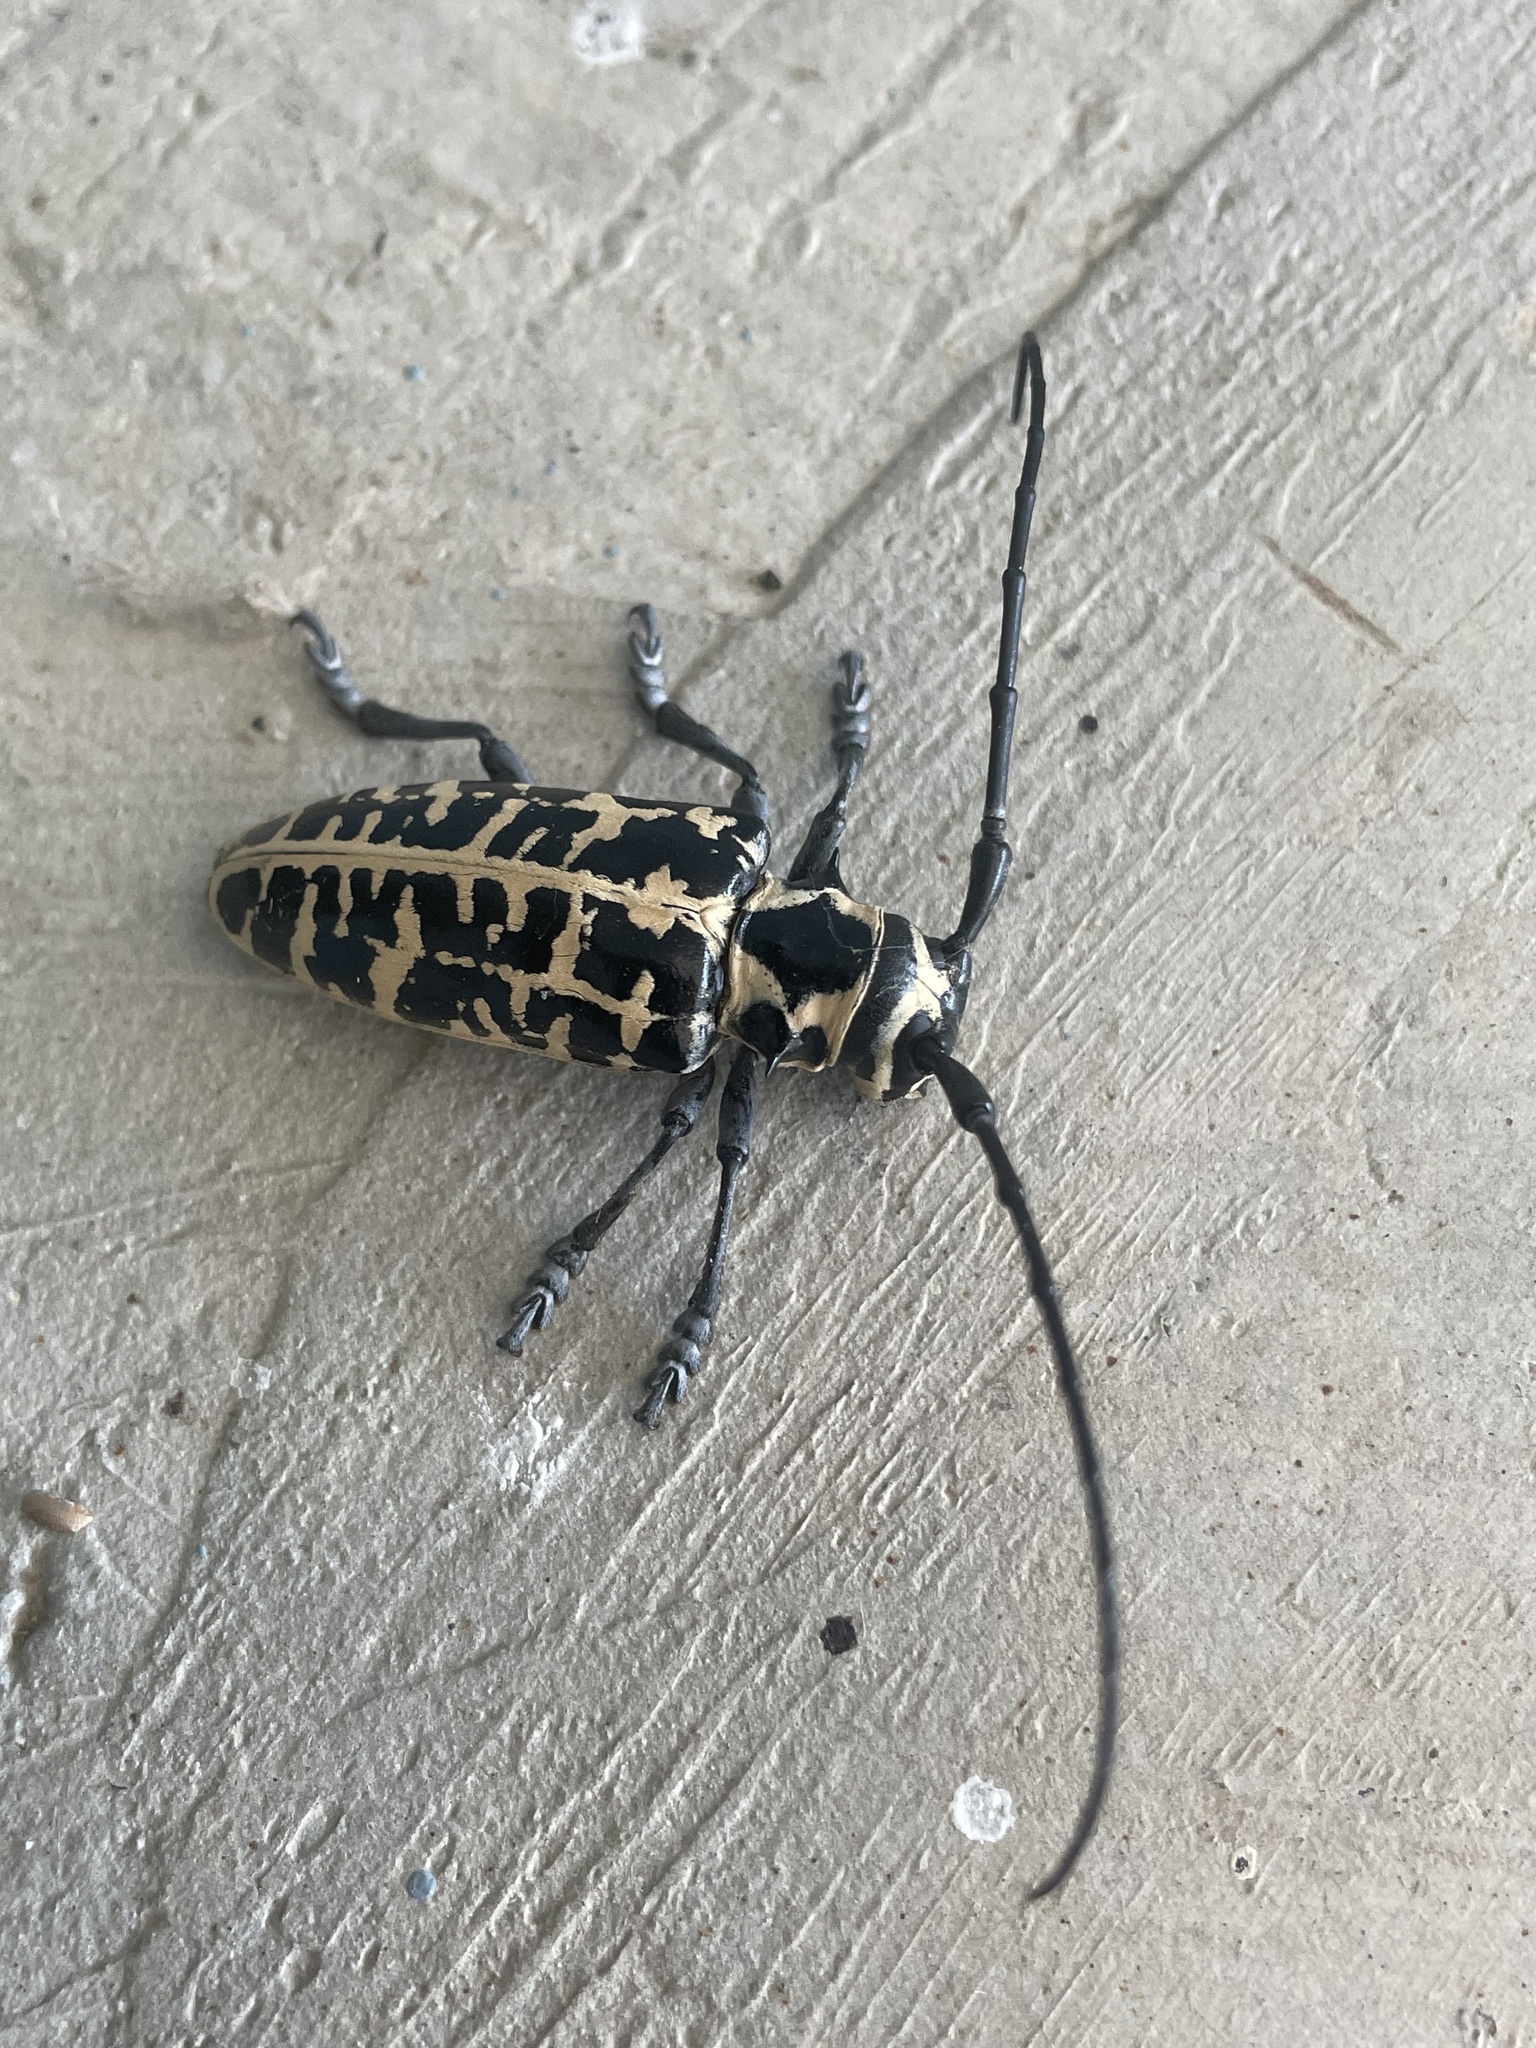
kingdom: Animalia
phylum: Arthropoda
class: Insecta
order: Coleoptera
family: Cerambycidae
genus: Plectrodera
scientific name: Plectrodera scalator
